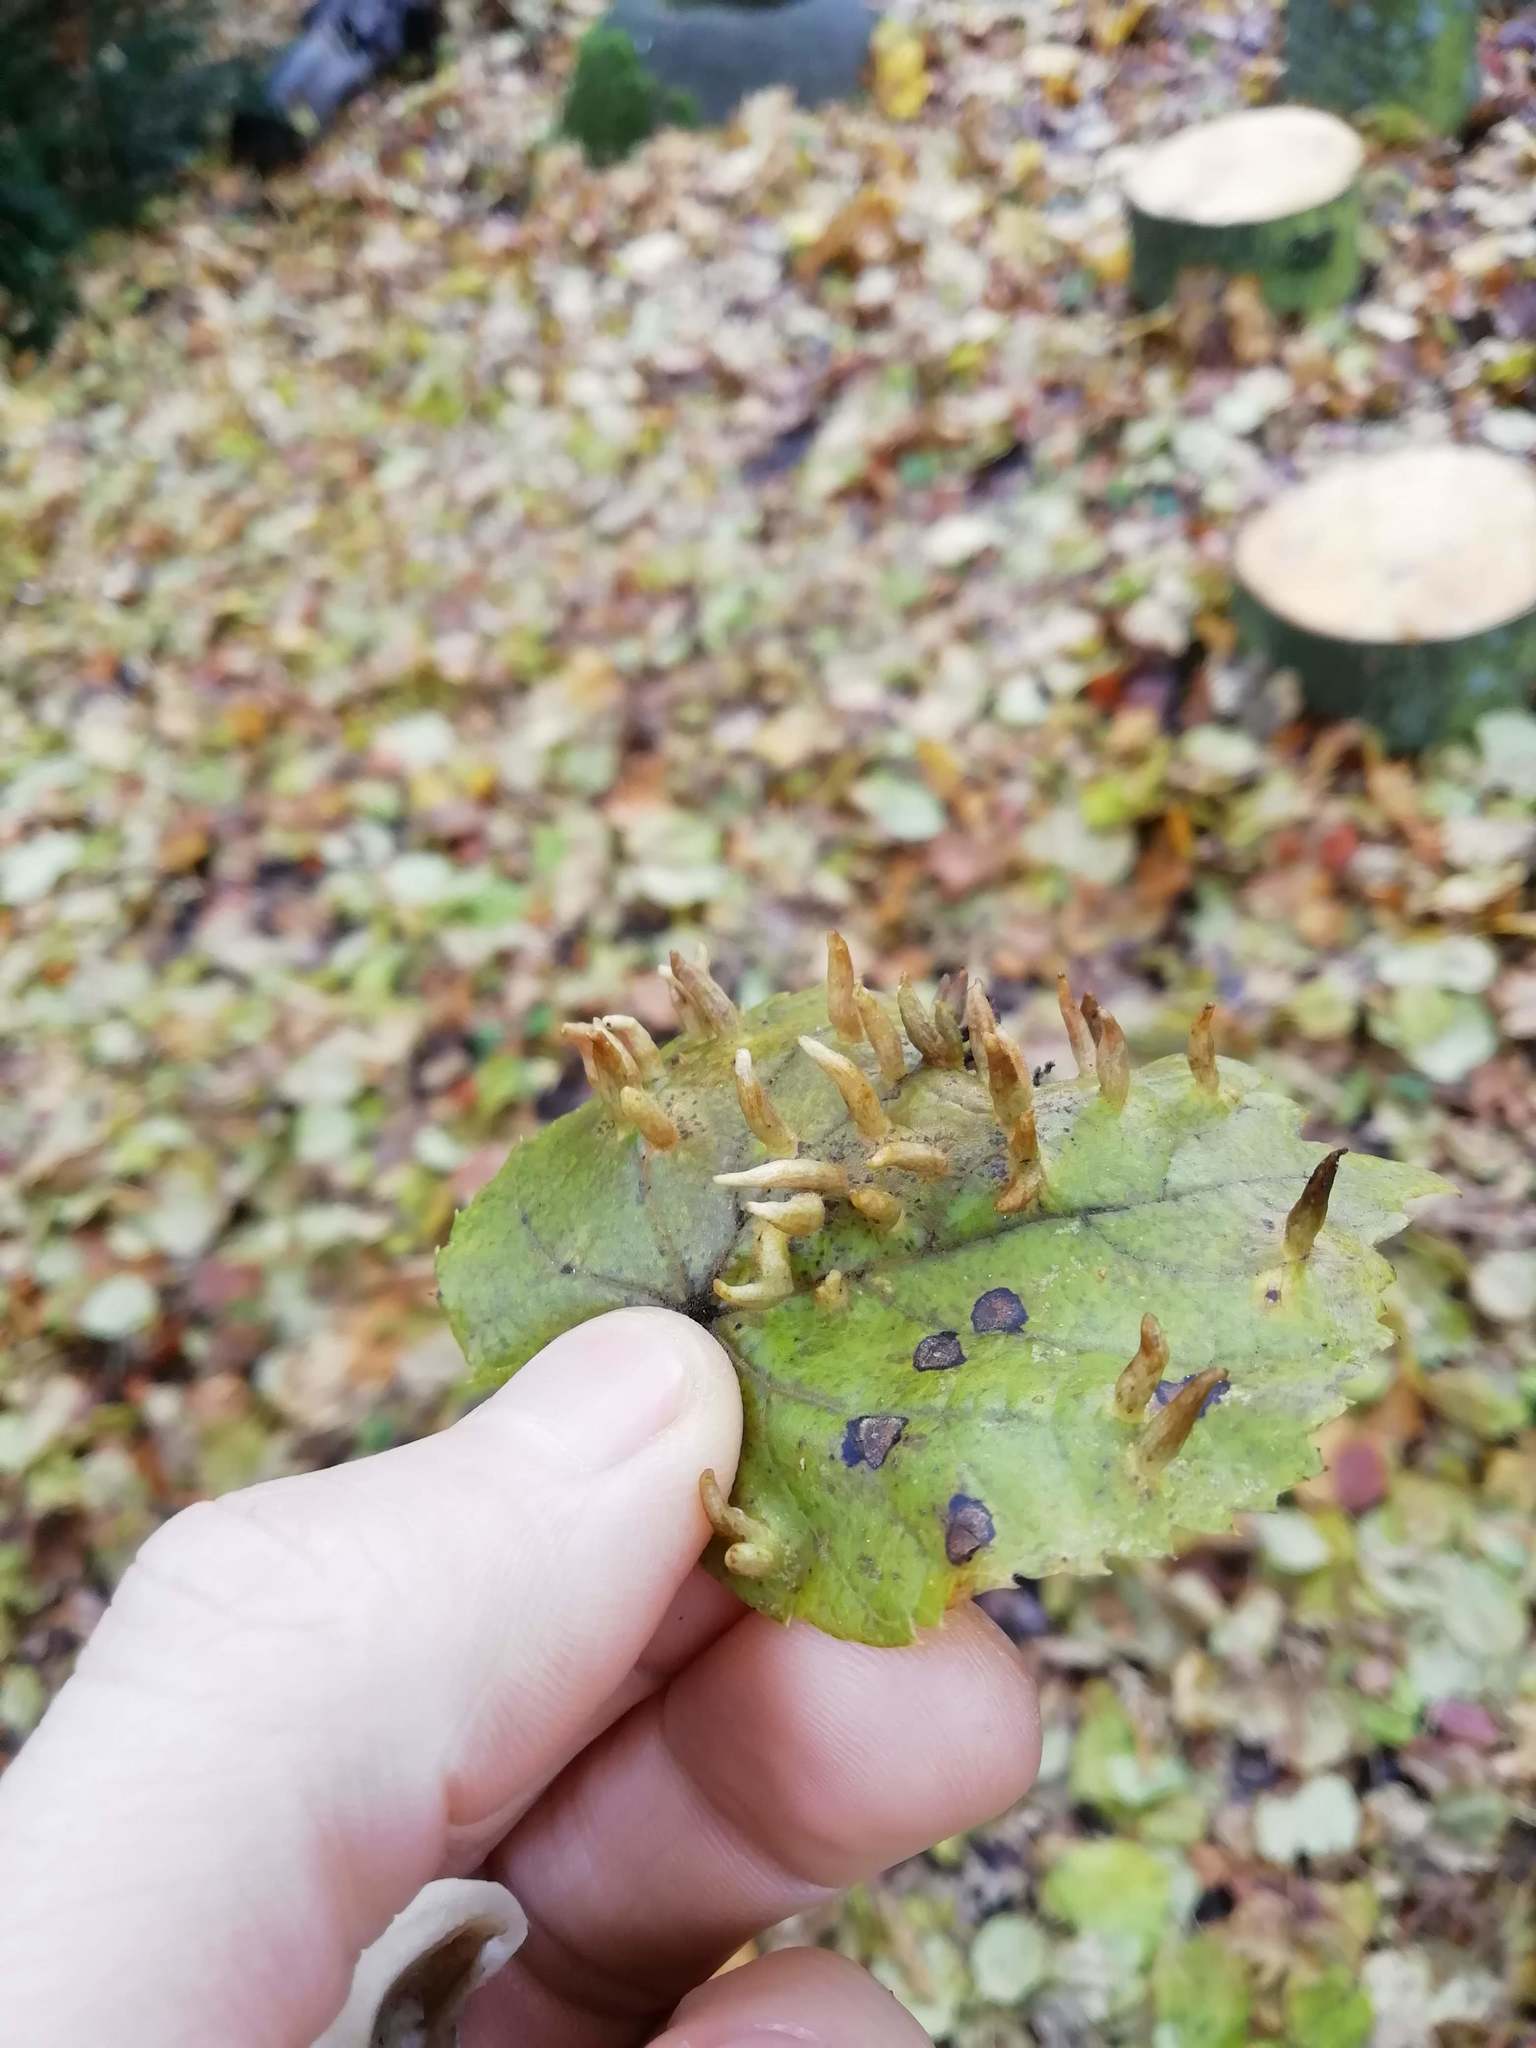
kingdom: Animalia
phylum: Arthropoda
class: Arachnida
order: Trombidiformes
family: Eriophyidae
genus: Eriophyes
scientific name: Eriophyes tiliae
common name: Red nail gall mite
